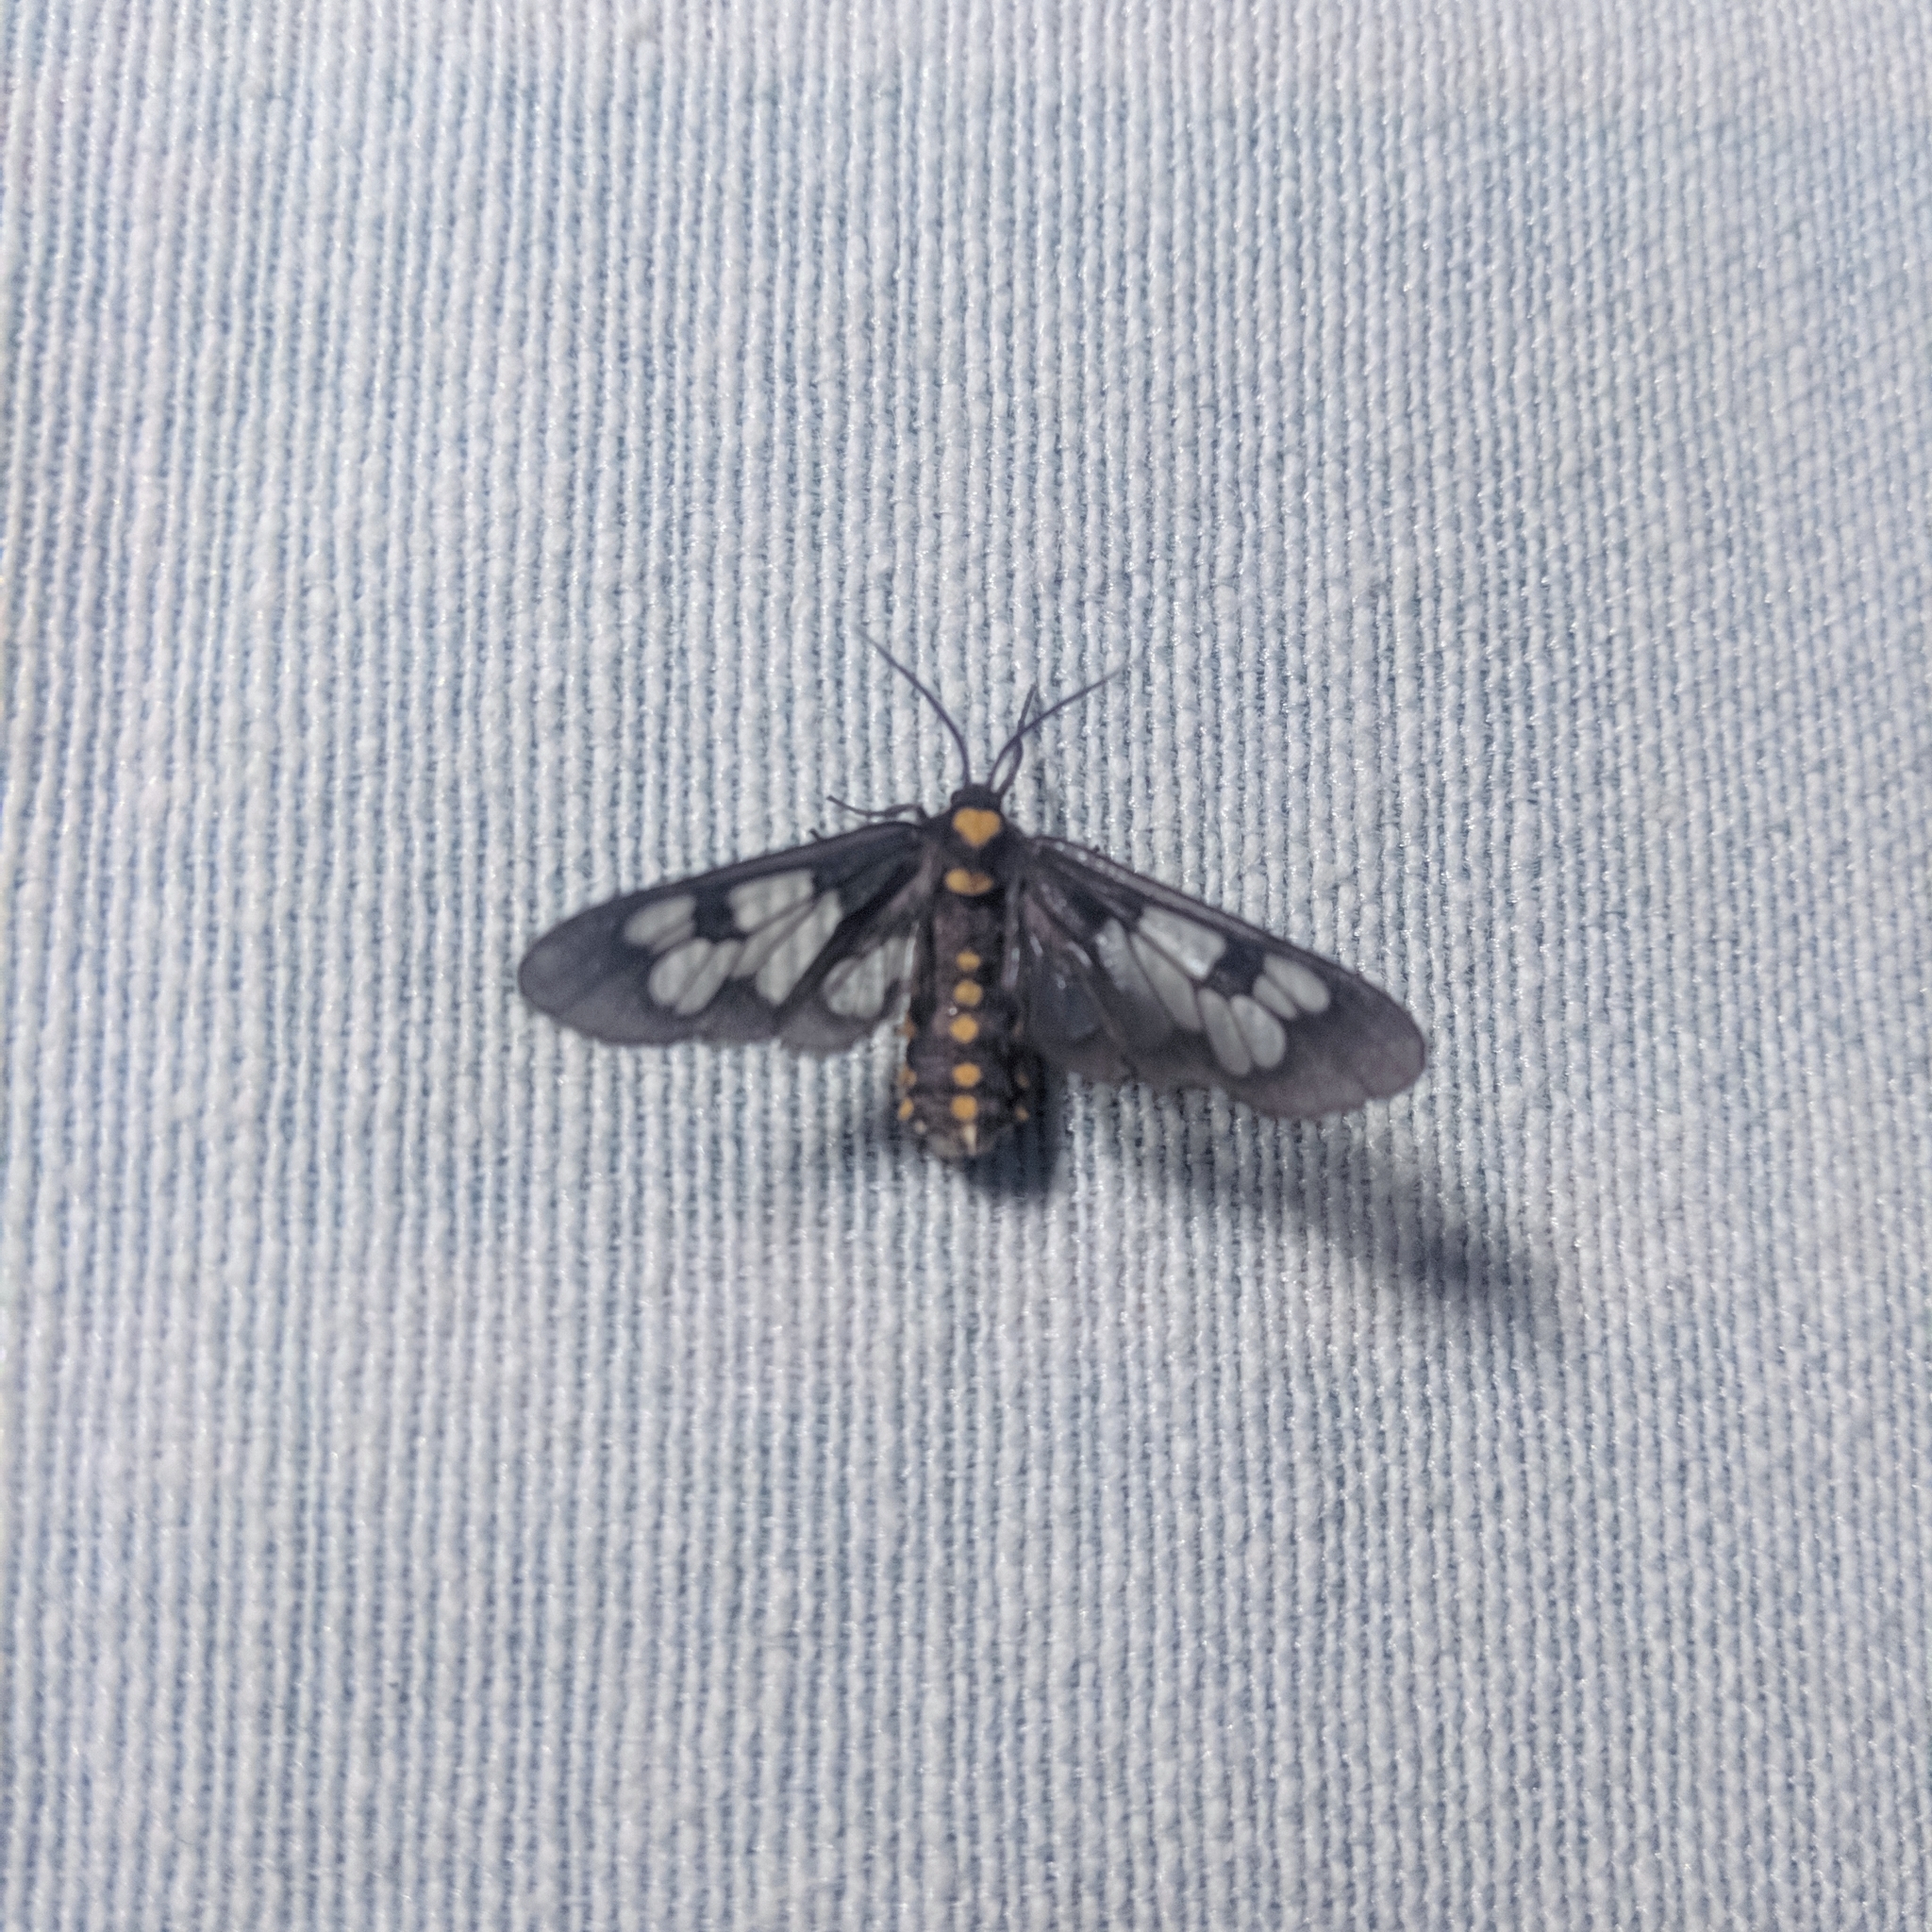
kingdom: Animalia
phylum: Arthropoda
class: Insecta
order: Lepidoptera
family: Erebidae
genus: Eressa
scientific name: Eressa confinis
